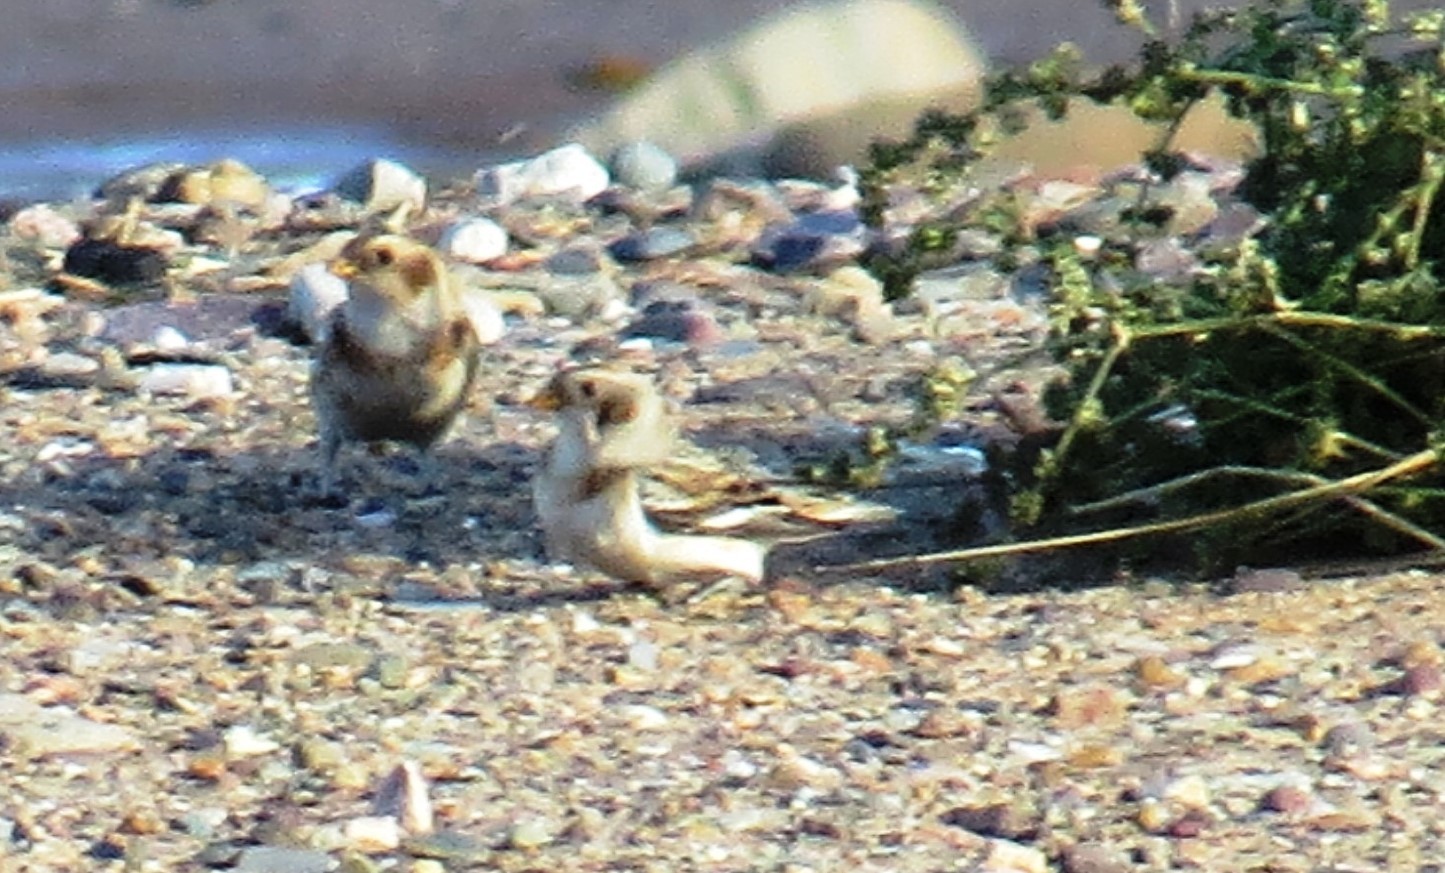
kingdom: Animalia
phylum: Chordata
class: Aves
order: Passeriformes
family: Calcariidae
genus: Plectrophenax
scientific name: Plectrophenax nivalis
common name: Snow bunting
